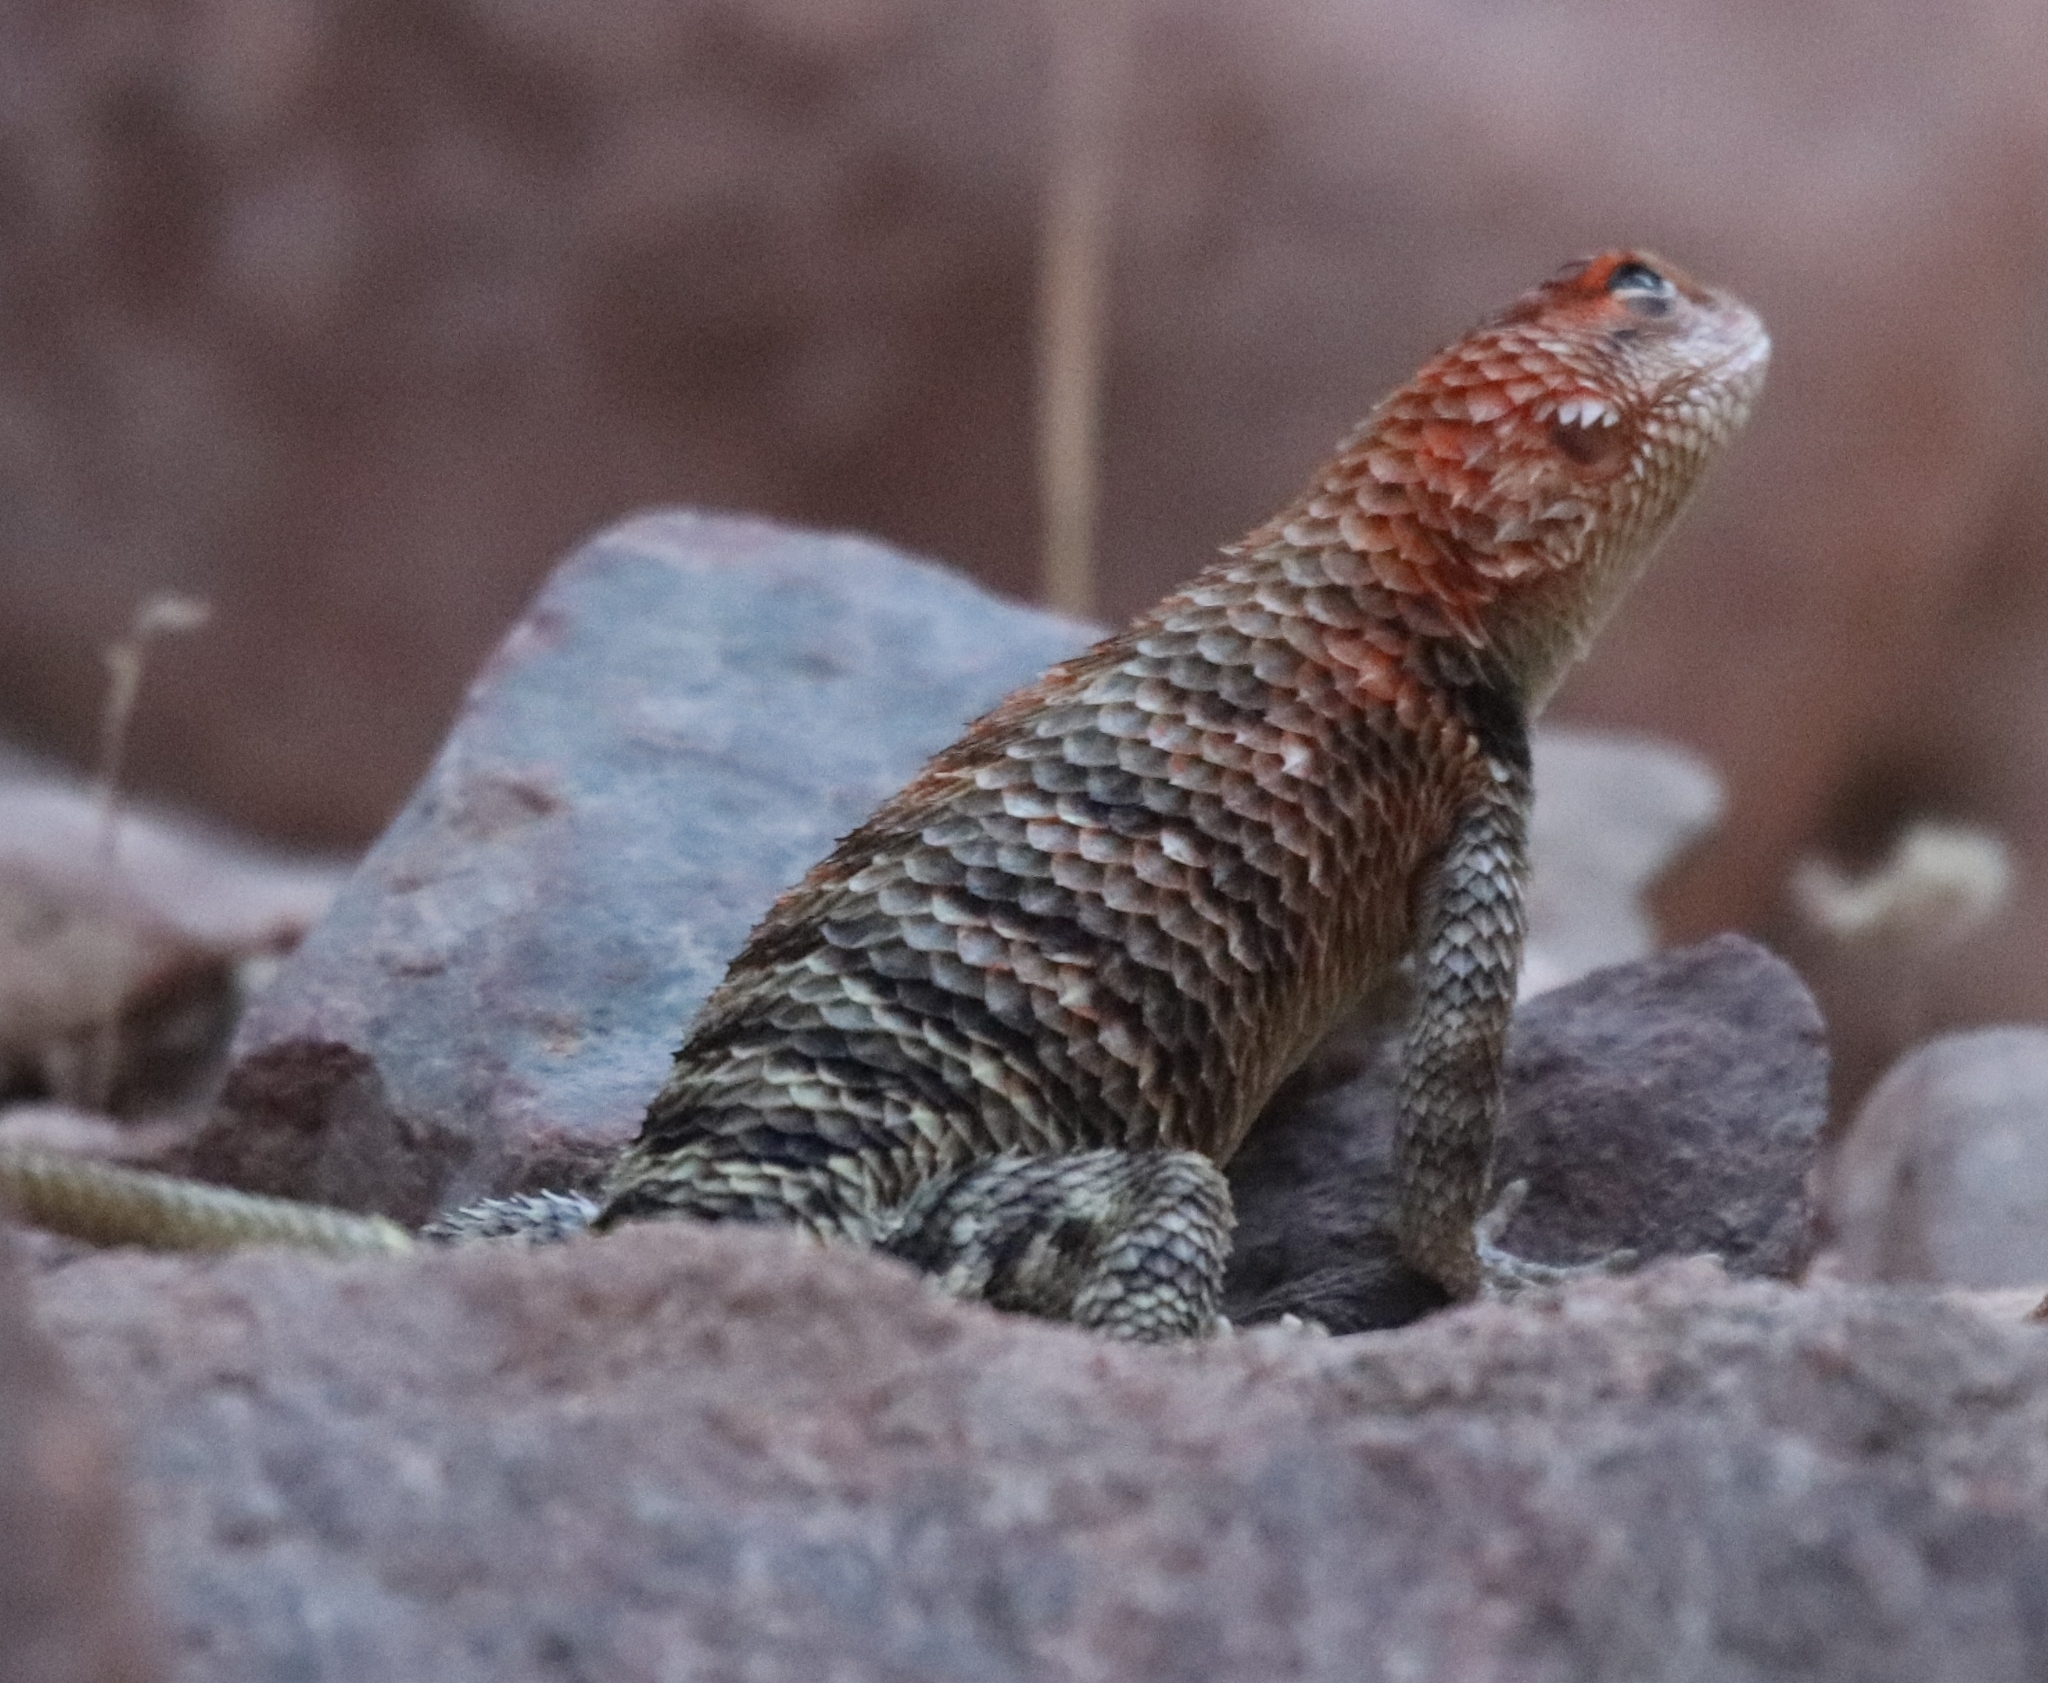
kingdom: Animalia
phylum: Chordata
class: Squamata
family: Phrynosomatidae
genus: Sceloporus
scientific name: Sceloporus magister
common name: Desert spiny lizard
